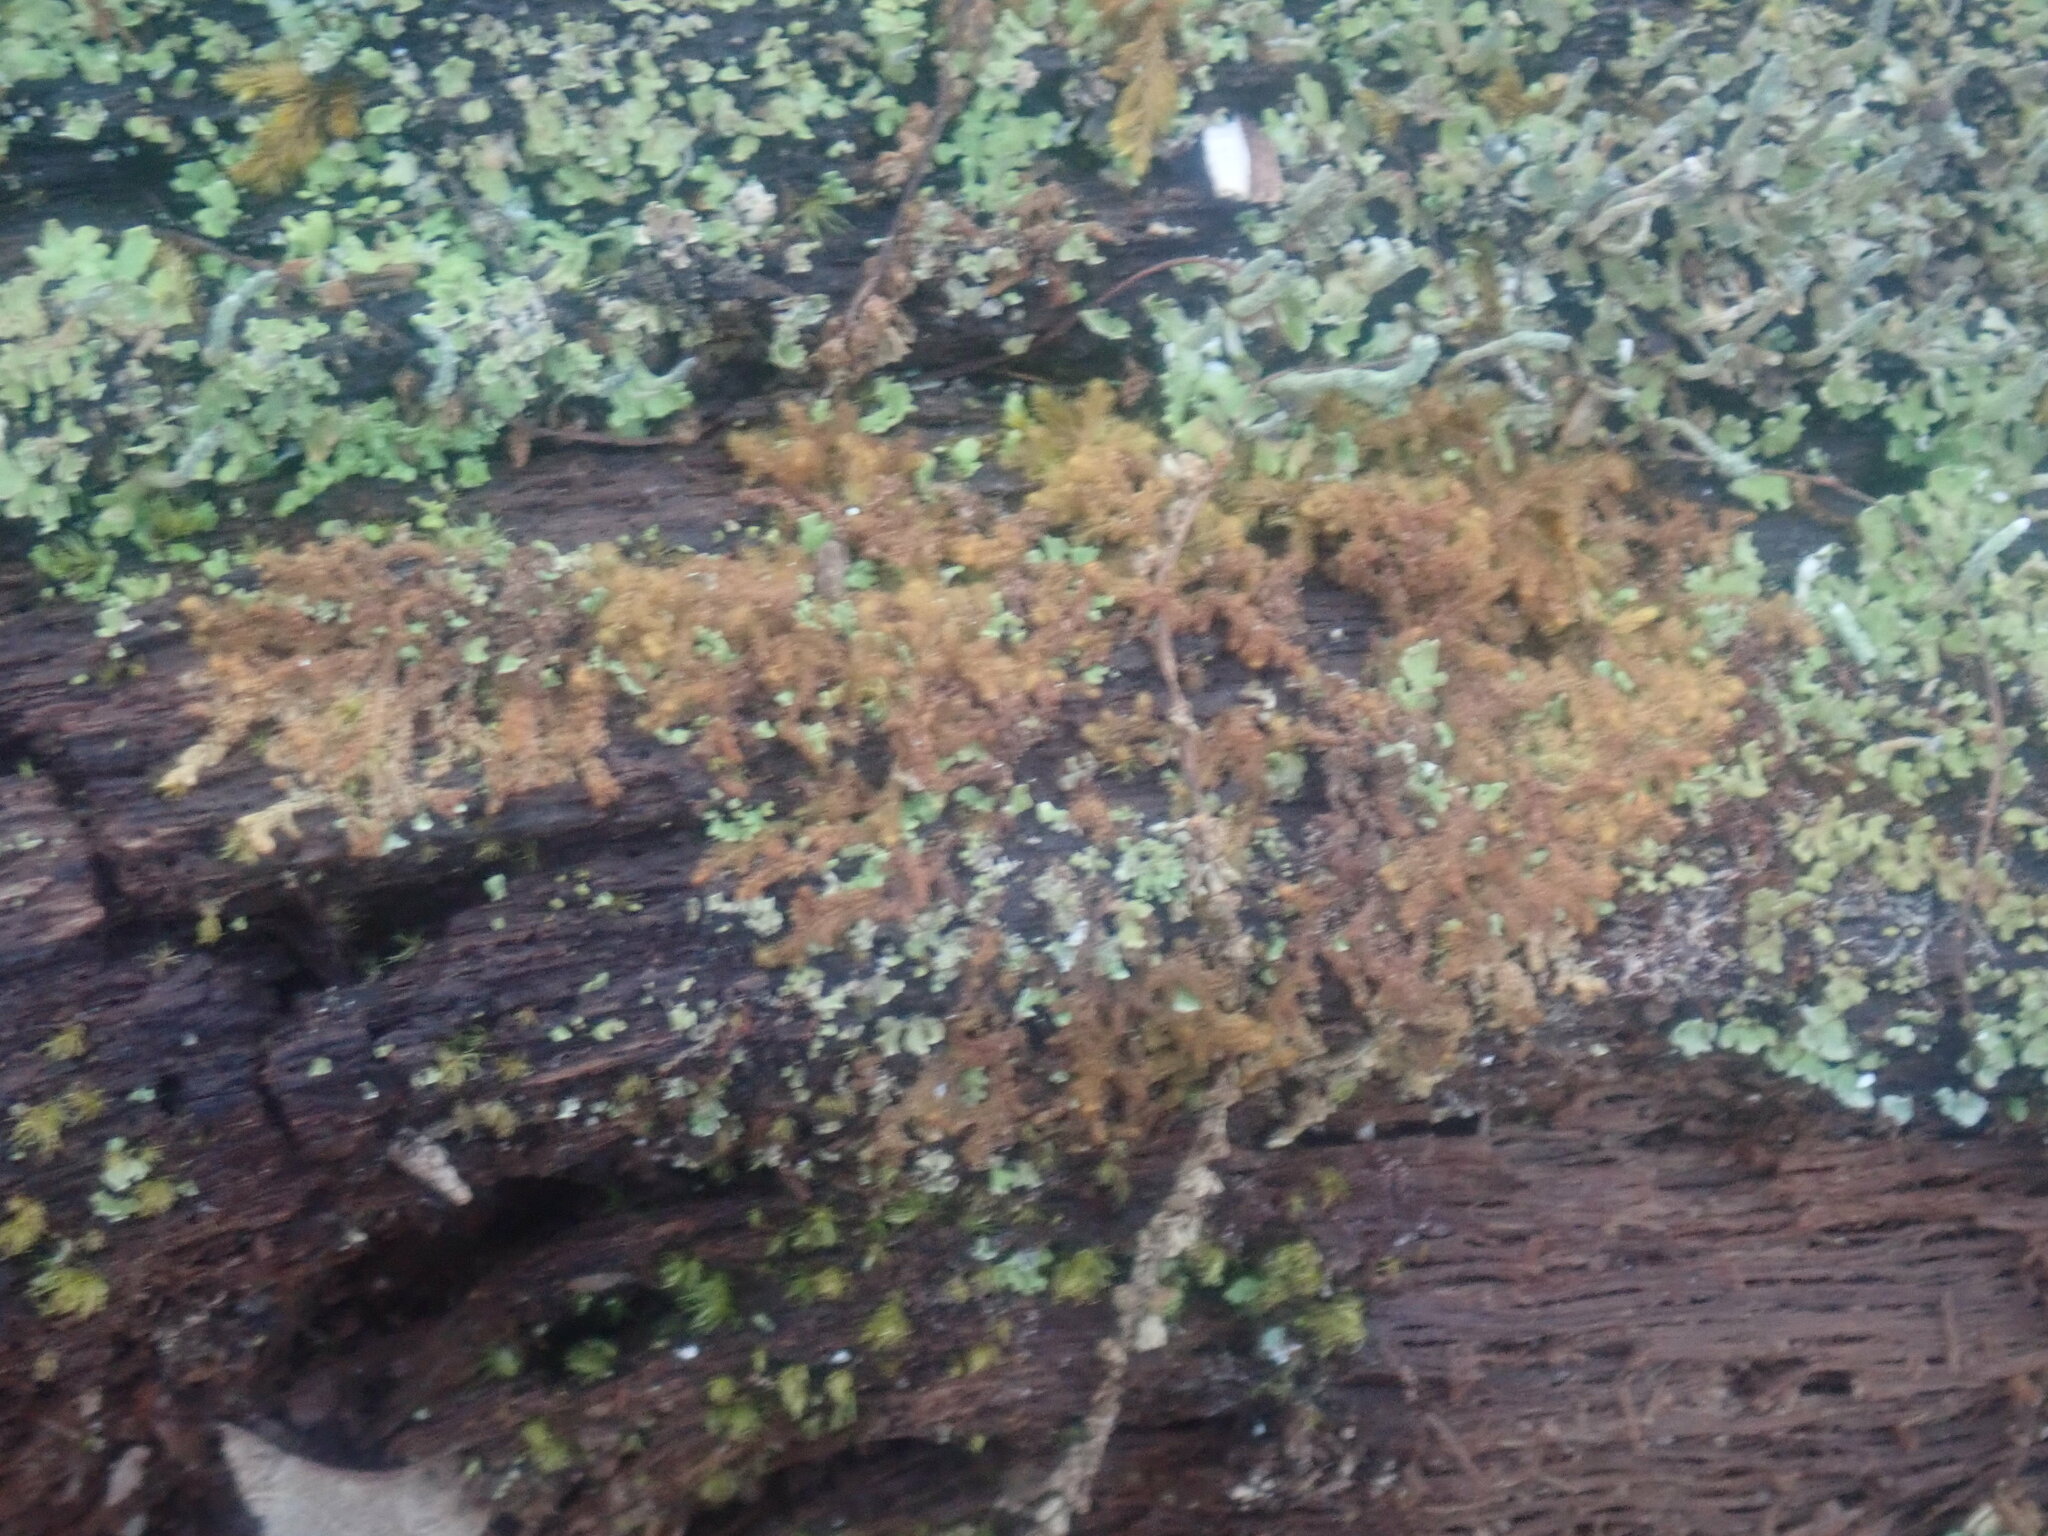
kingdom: Plantae
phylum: Marchantiophyta
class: Jungermanniopsida
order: Ptilidiales
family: Ptilidiaceae
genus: Ptilidium
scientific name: Ptilidium pulcherrimum
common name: Tree fringewort
